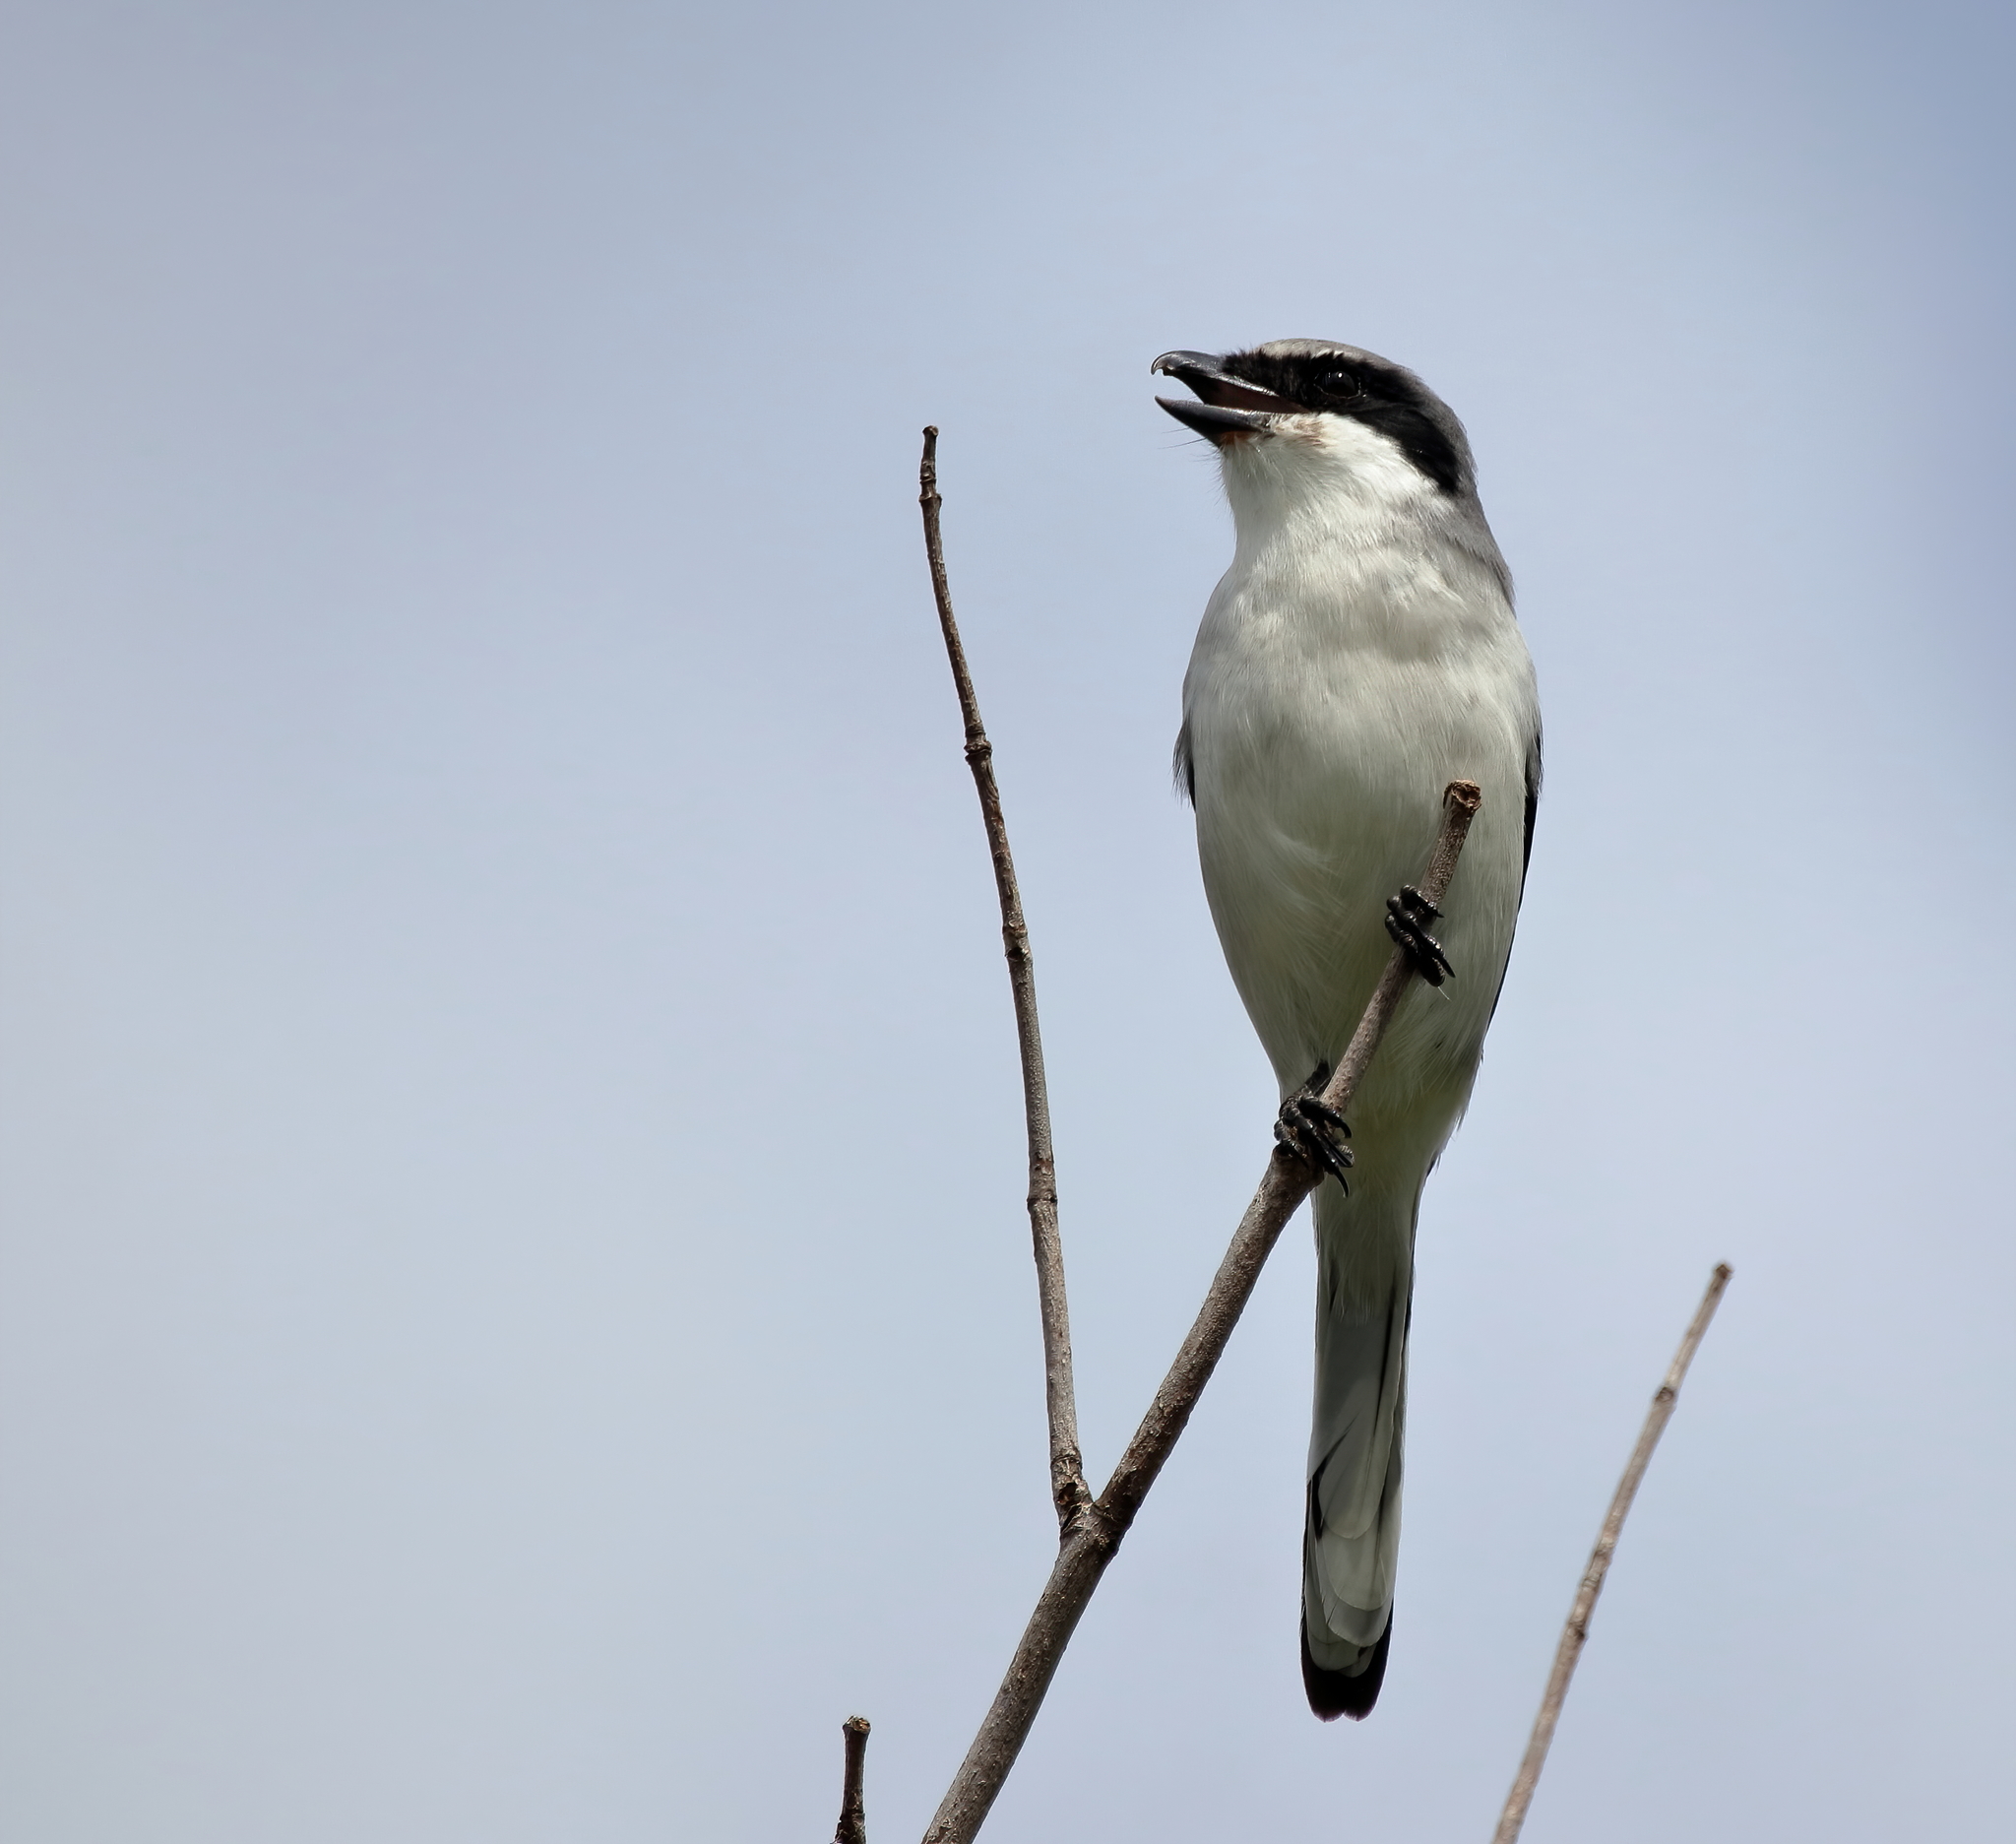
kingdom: Animalia
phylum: Chordata
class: Aves
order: Passeriformes
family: Laniidae
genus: Lanius
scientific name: Lanius ludovicianus
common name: Loggerhead shrike
